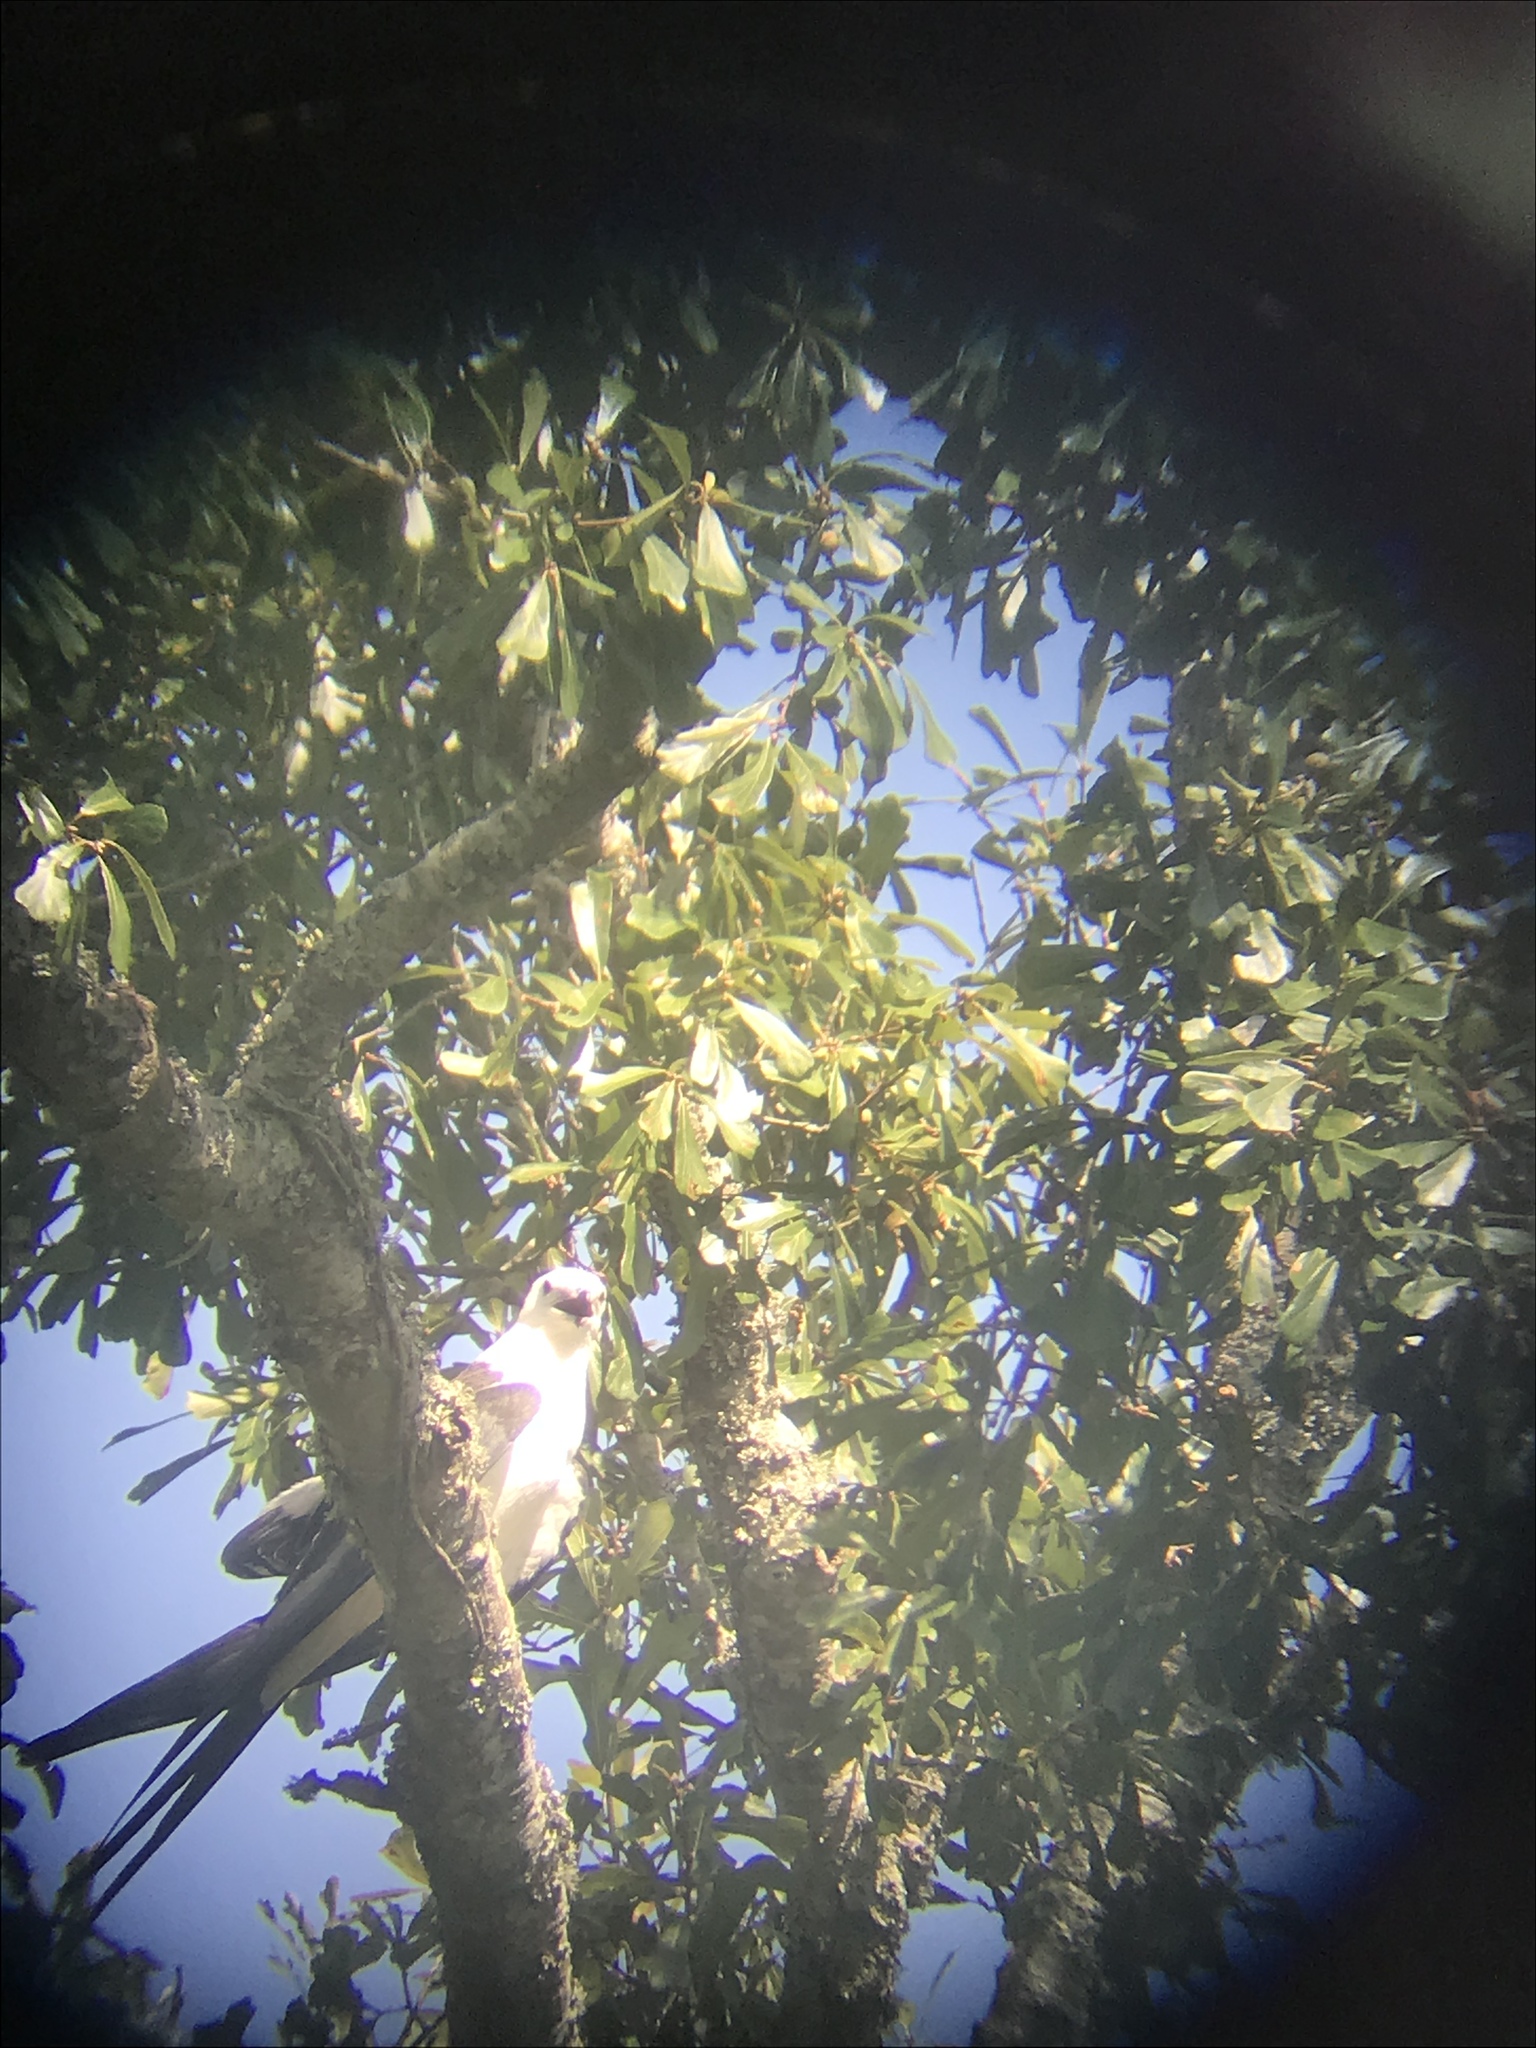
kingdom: Animalia
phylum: Chordata
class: Aves
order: Accipitriformes
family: Accipitridae
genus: Elanoides
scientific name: Elanoides forficatus
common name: Swallow-tailed kite
